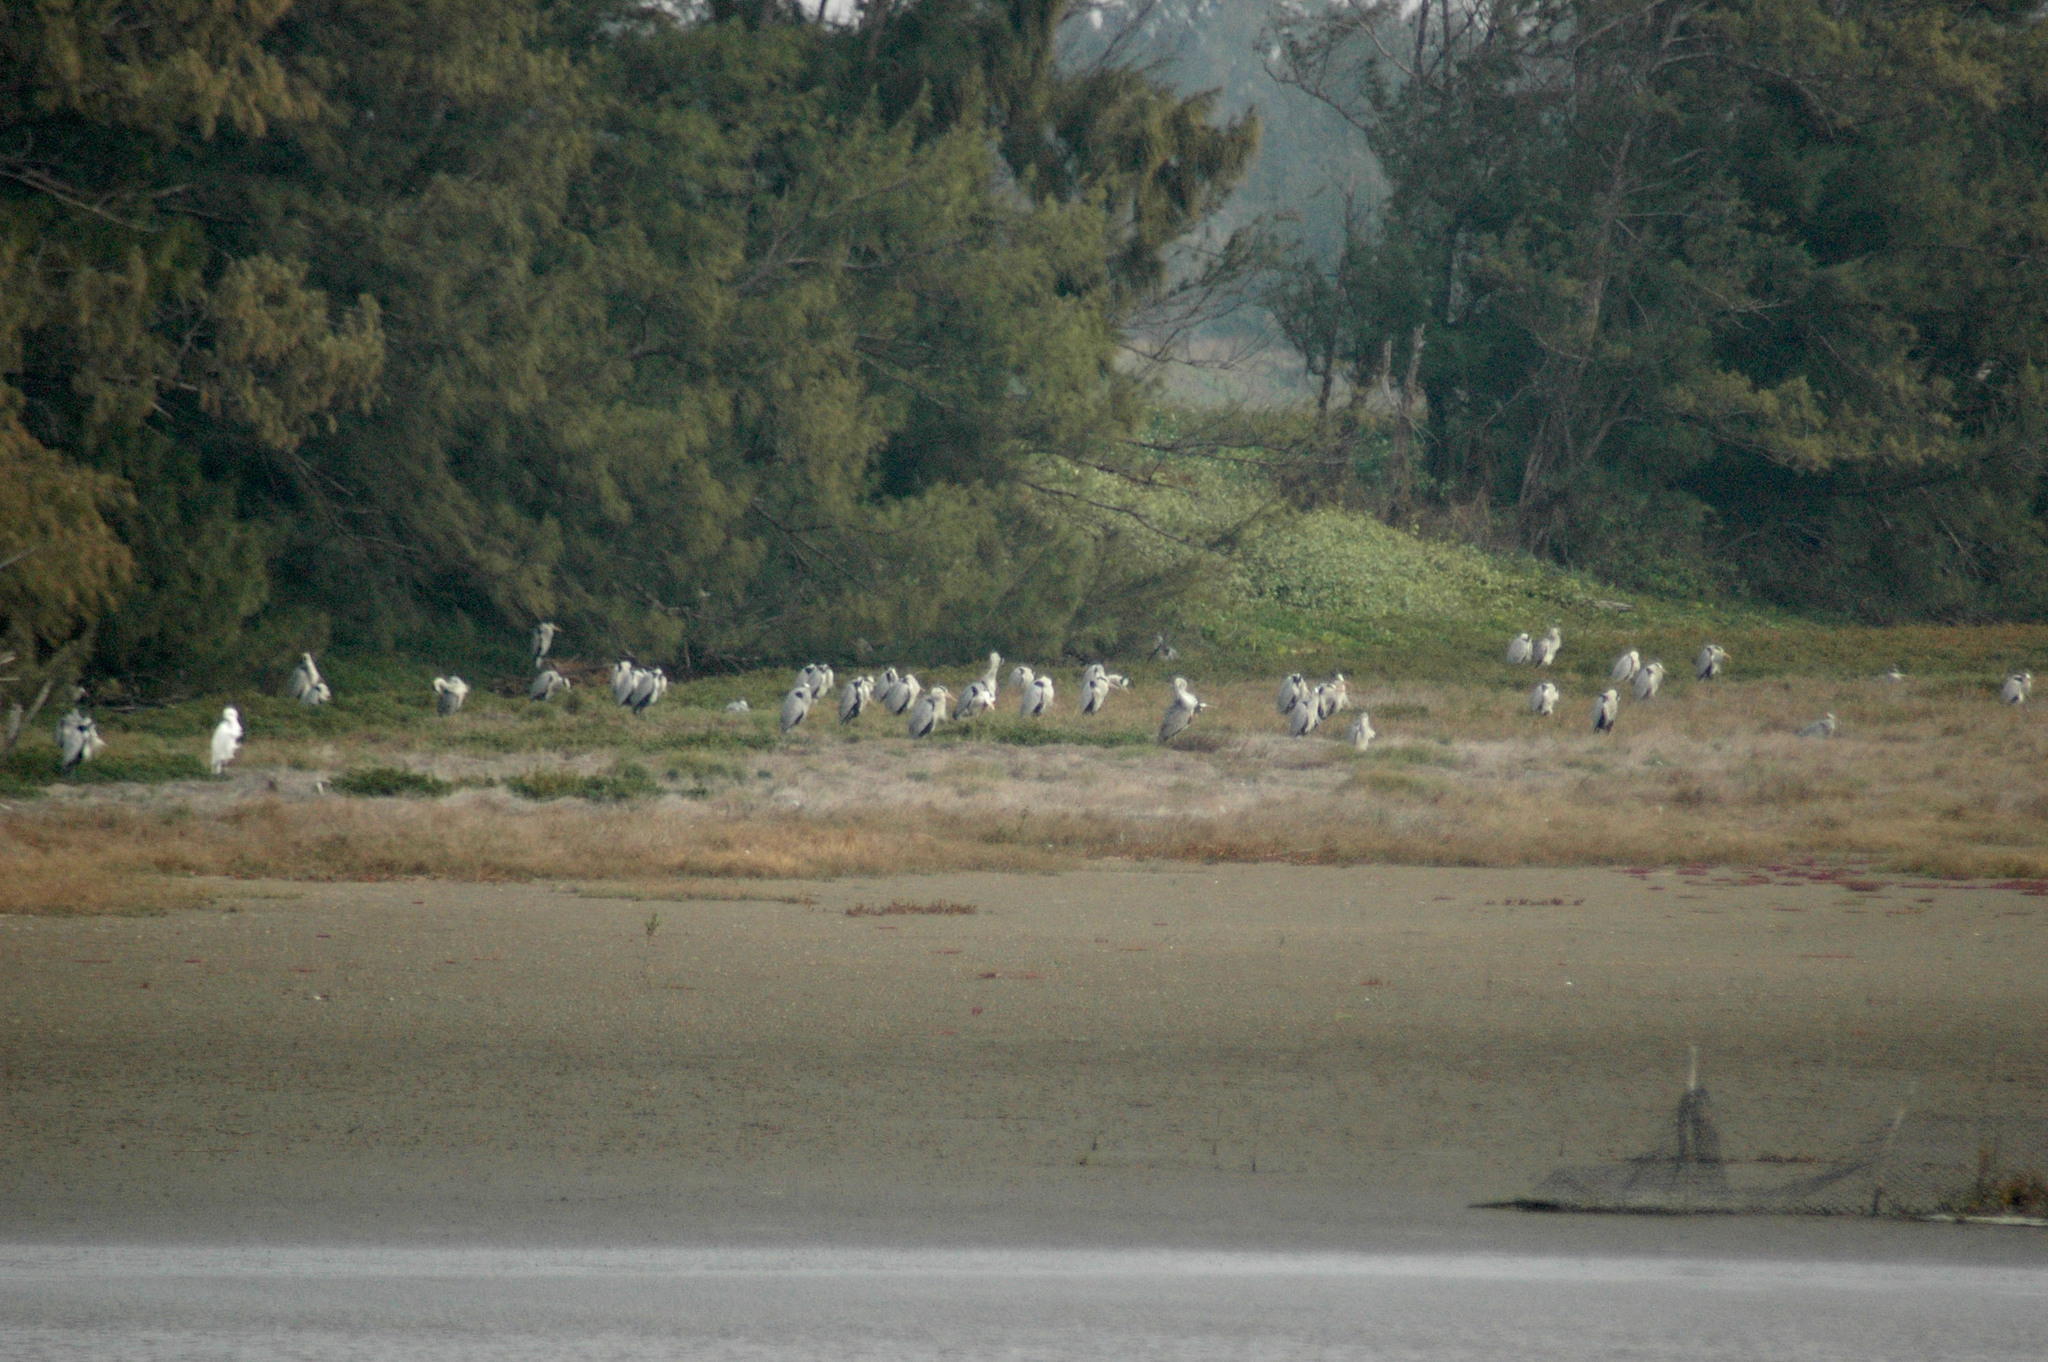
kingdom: Animalia
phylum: Chordata
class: Aves
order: Pelecaniformes
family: Ardeidae
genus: Ardea
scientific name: Ardea cinerea
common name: Grey heron
